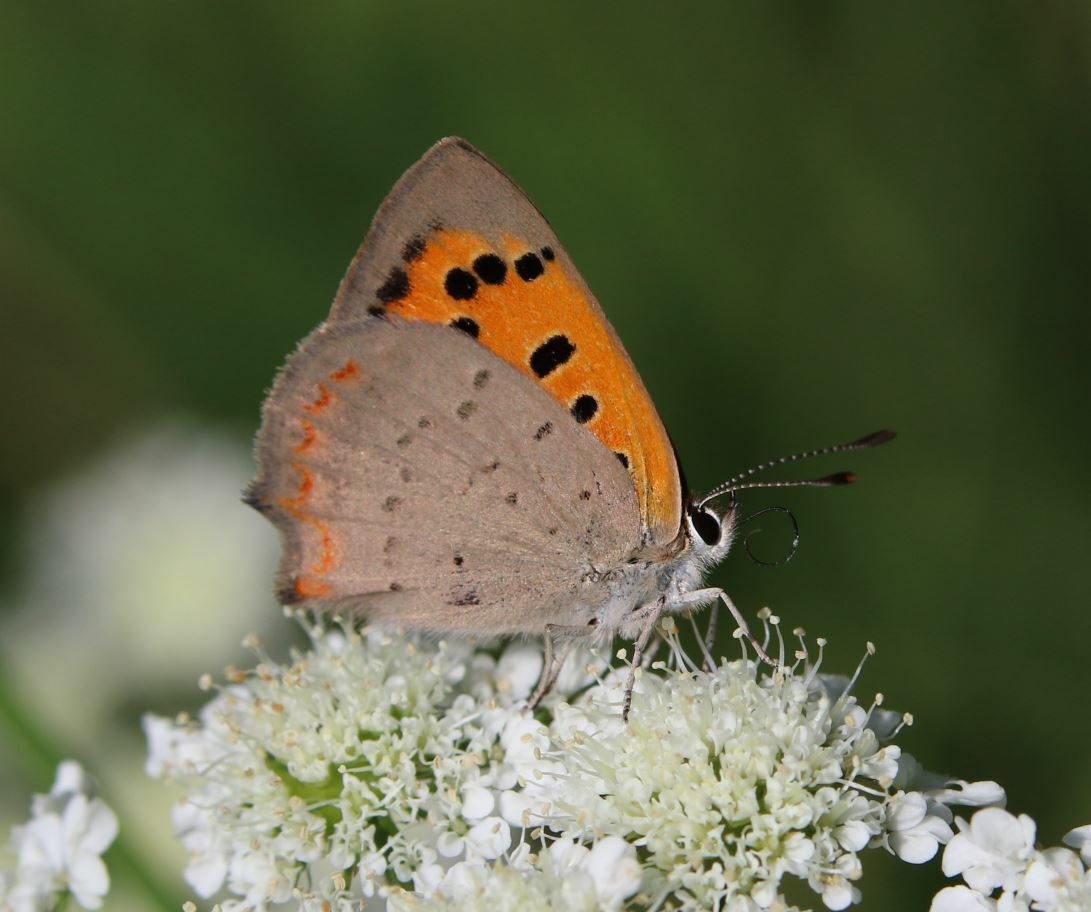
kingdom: Animalia
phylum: Arthropoda
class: Insecta
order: Lepidoptera
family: Lycaenidae
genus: Lycaena
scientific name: Lycaena phlaeas
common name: Small copper
